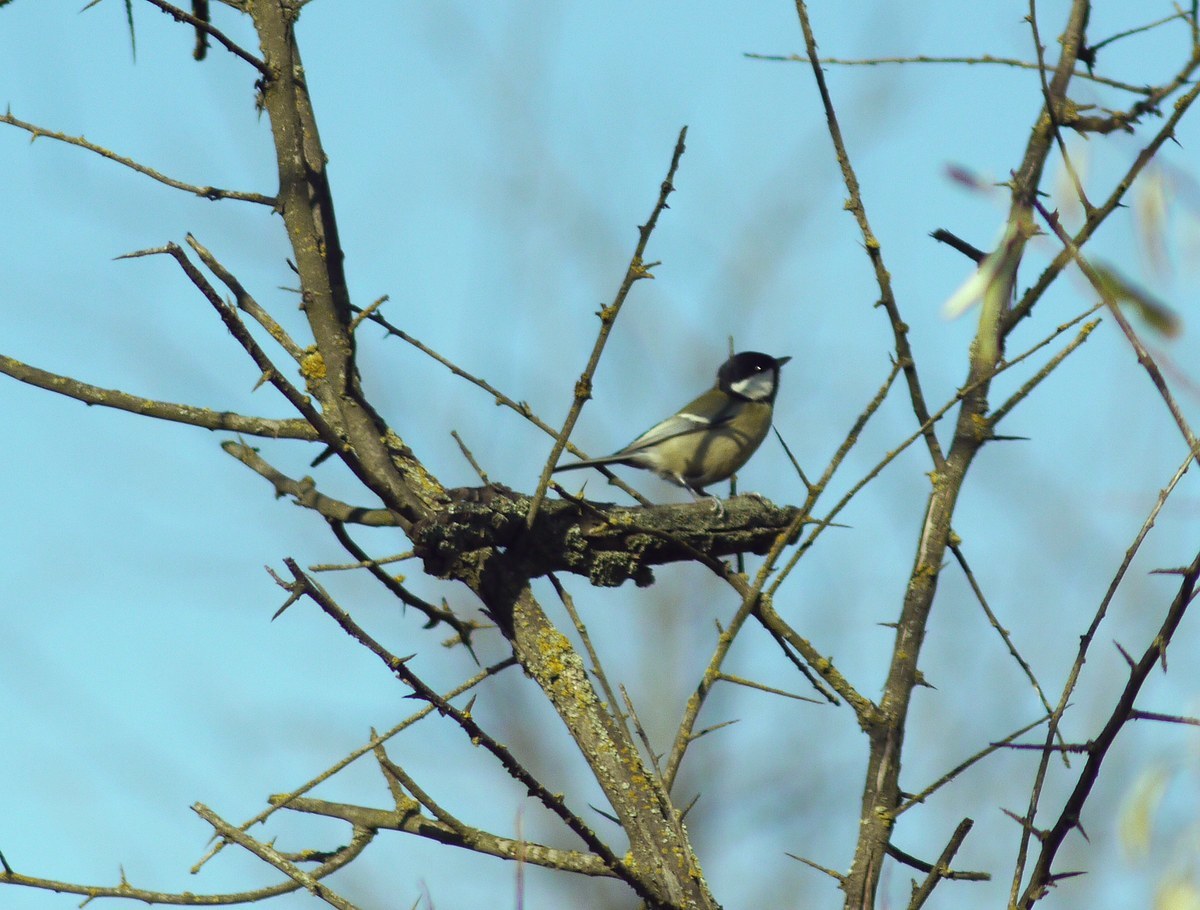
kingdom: Animalia
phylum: Chordata
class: Aves
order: Passeriformes
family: Paridae
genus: Parus
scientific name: Parus major
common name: Great tit
